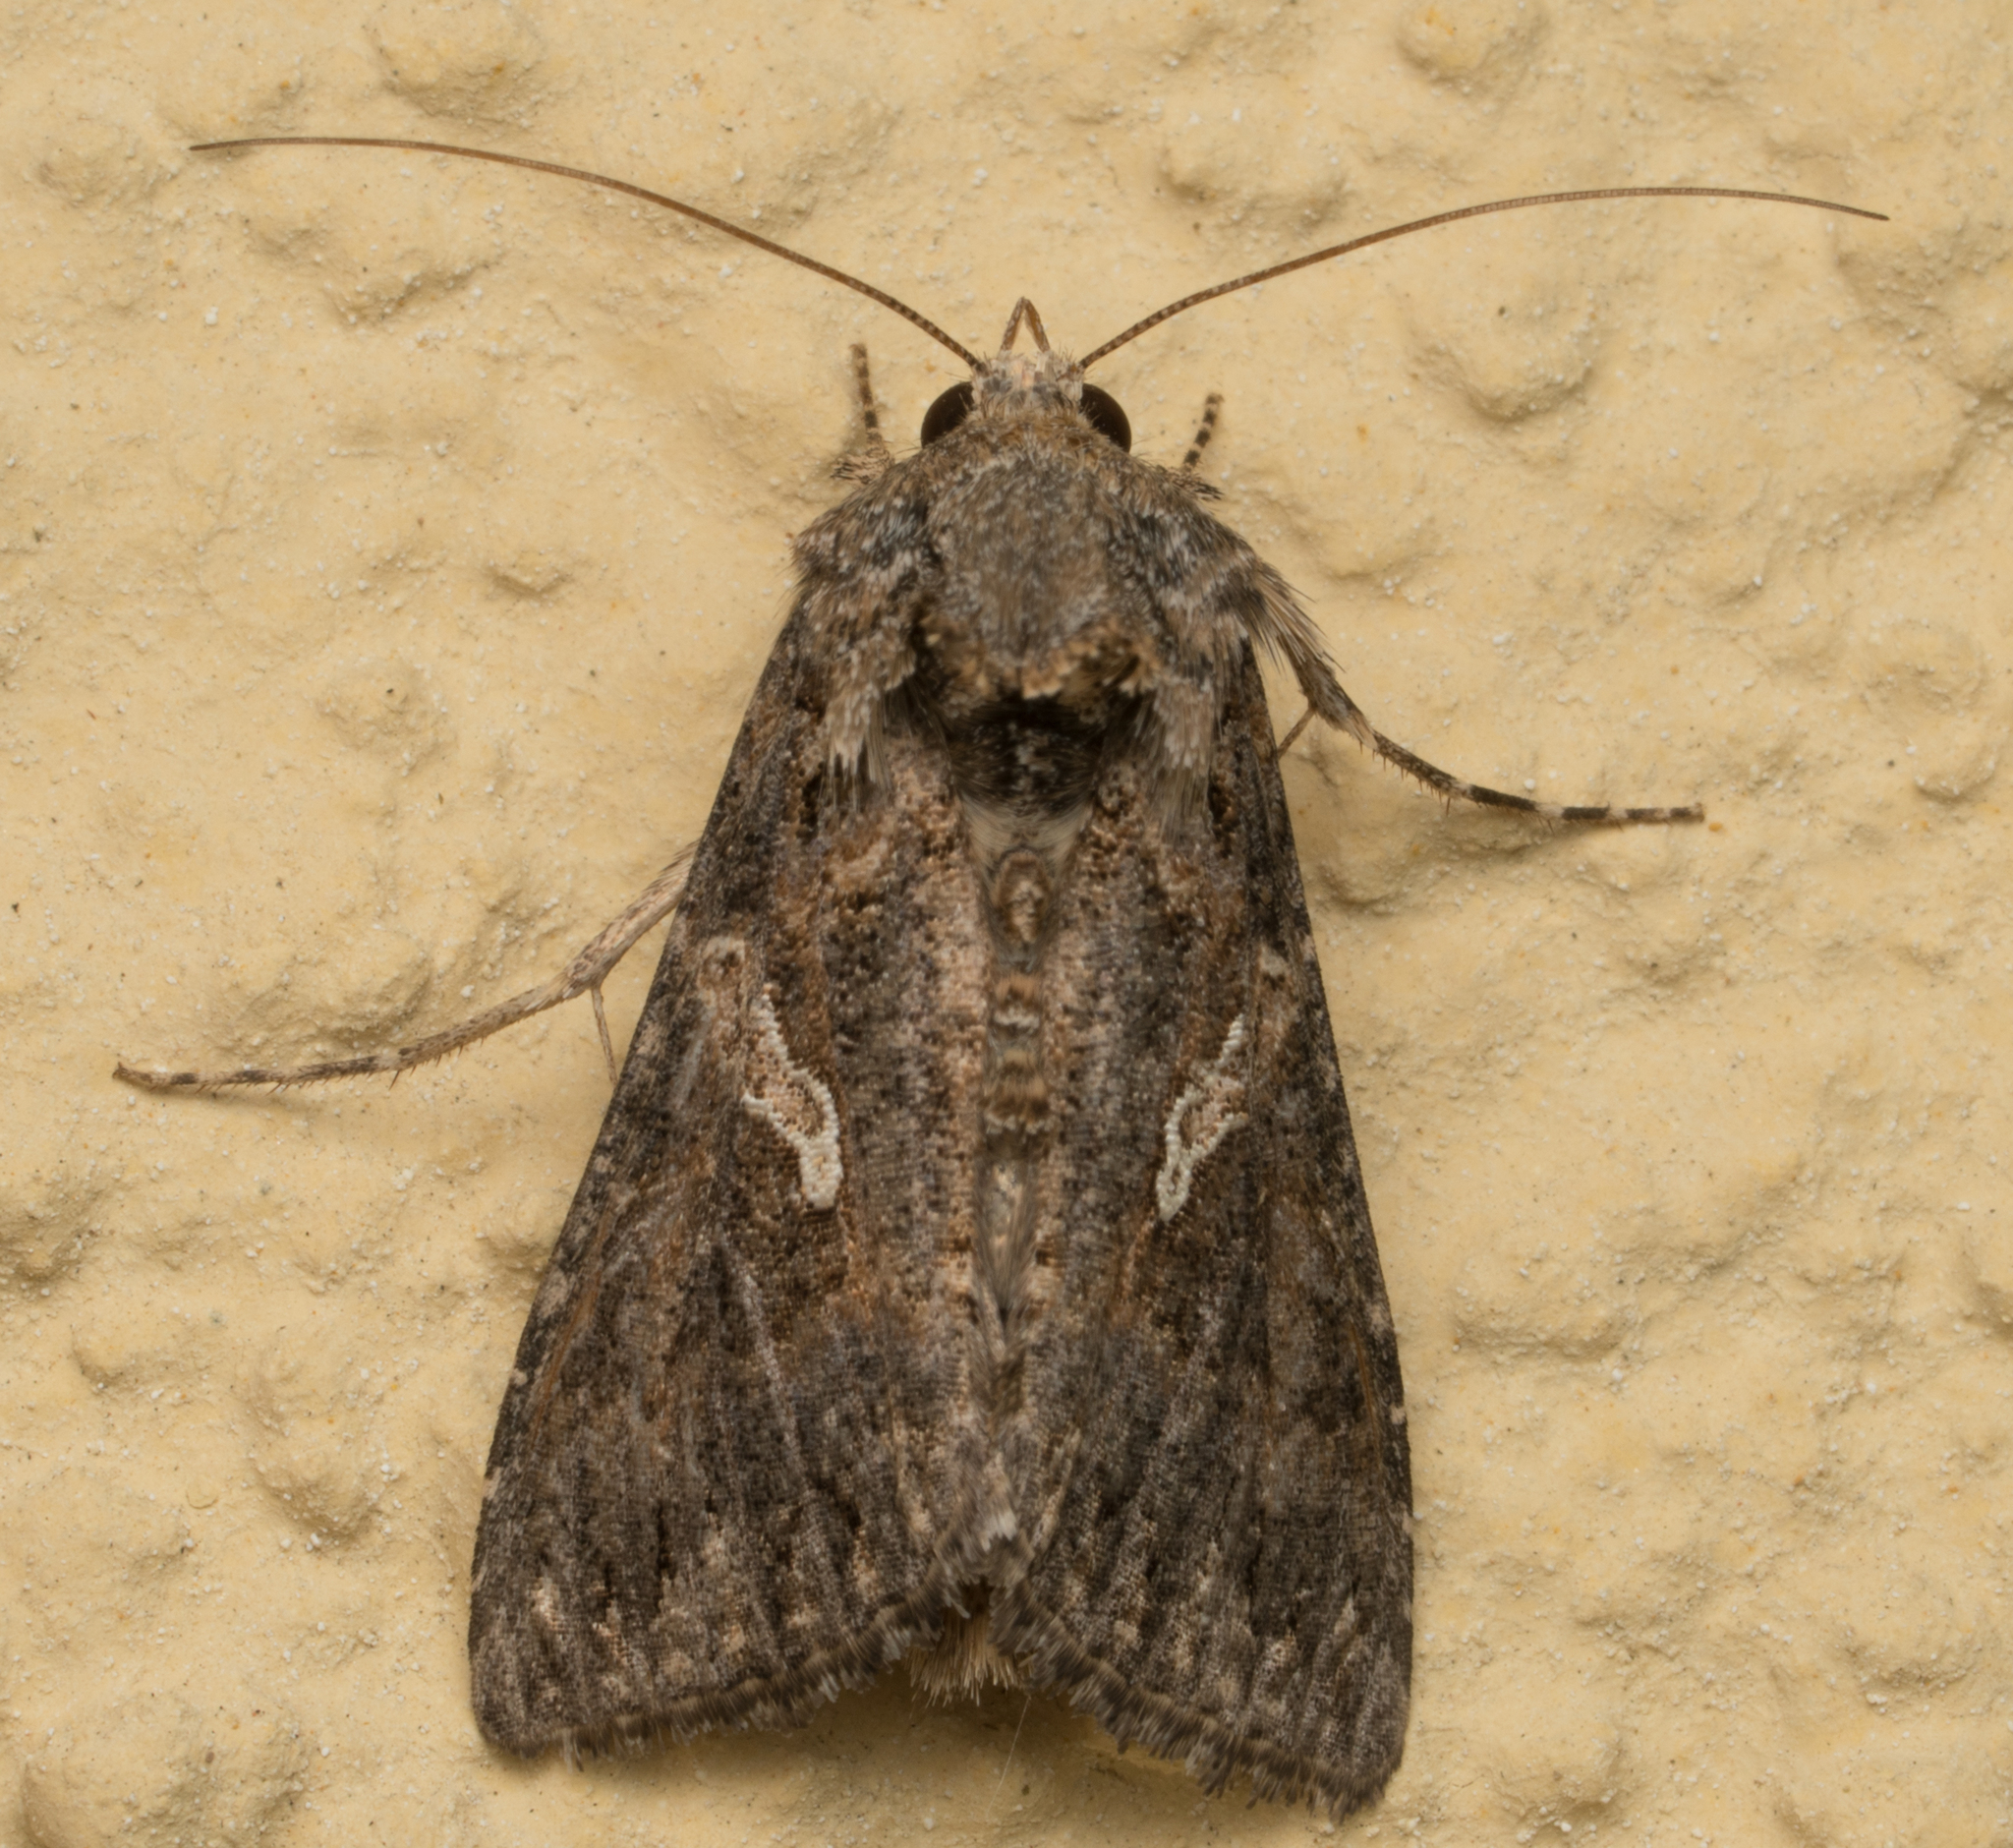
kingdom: Animalia
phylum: Arthropoda
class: Insecta
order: Lepidoptera
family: Noctuidae
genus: Trichoplusia
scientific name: Trichoplusia ni
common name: Ni moth
